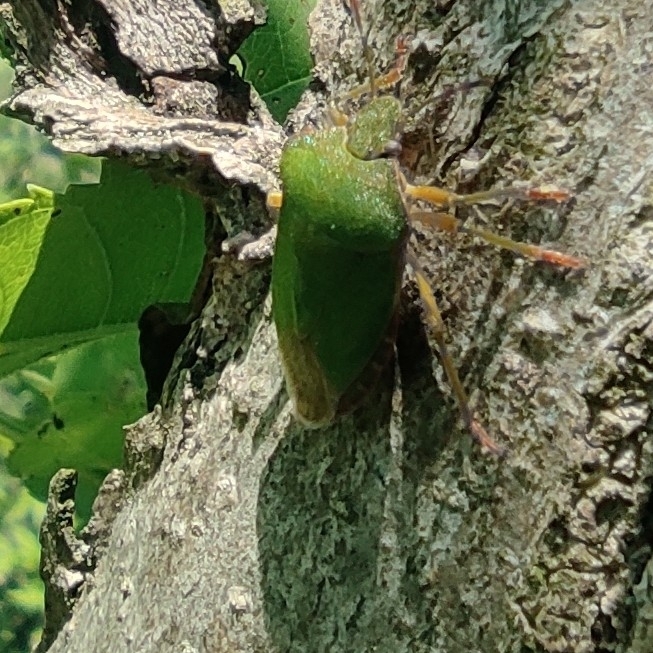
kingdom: Animalia
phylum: Arthropoda
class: Insecta
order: Hemiptera
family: Pentatomidae
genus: Palomena
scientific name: Palomena prasina
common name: Green shieldbug
